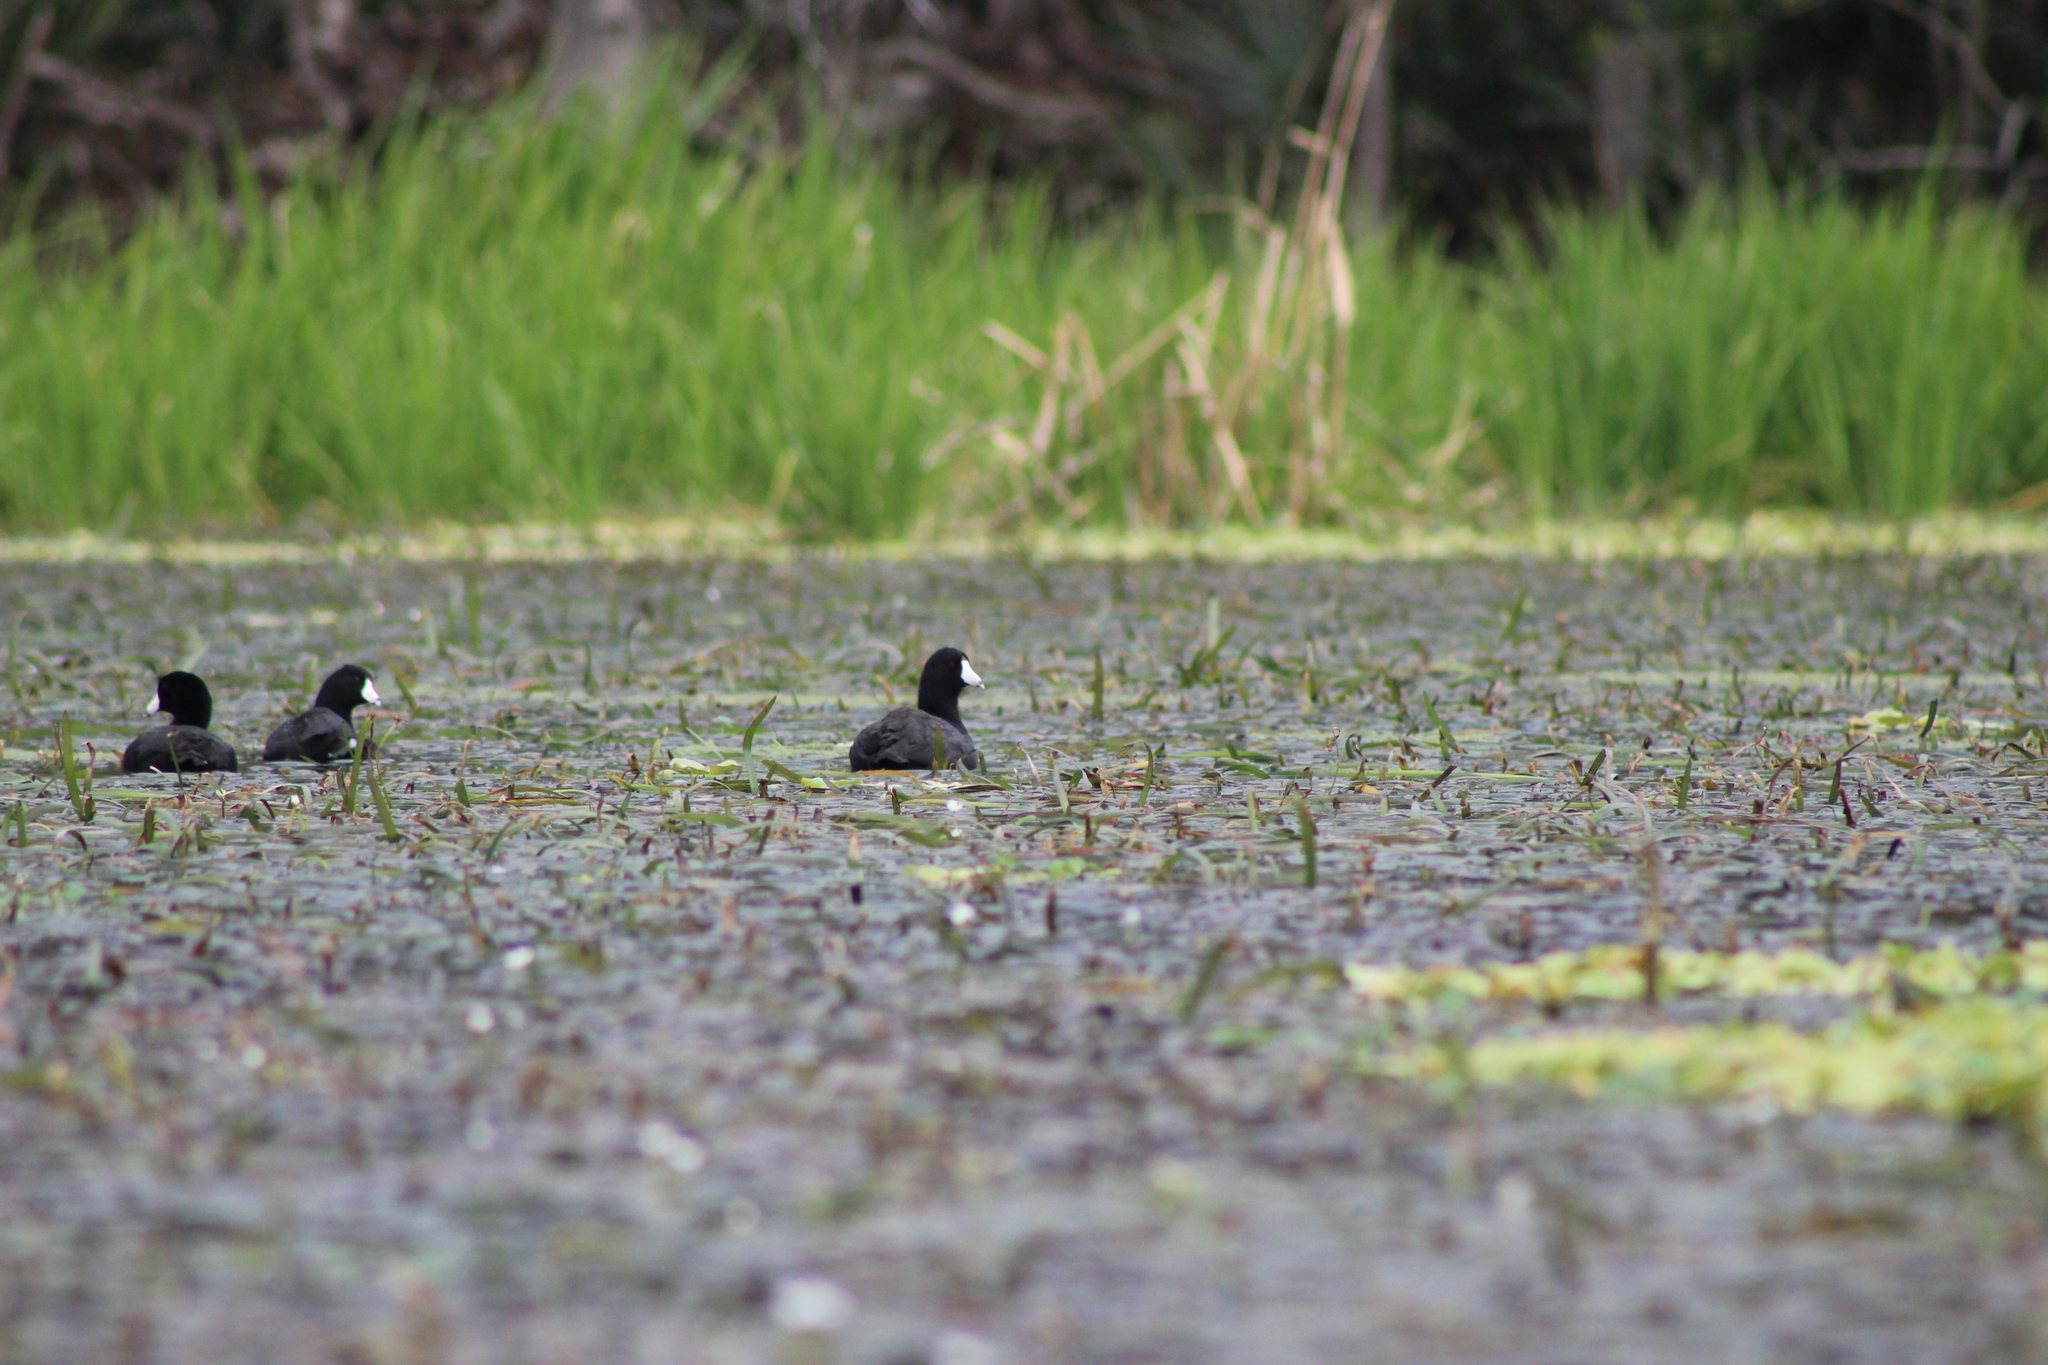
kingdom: Animalia
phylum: Chordata
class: Aves
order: Gruiformes
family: Rallidae
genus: Fulica
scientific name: Fulica americana
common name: American coot
